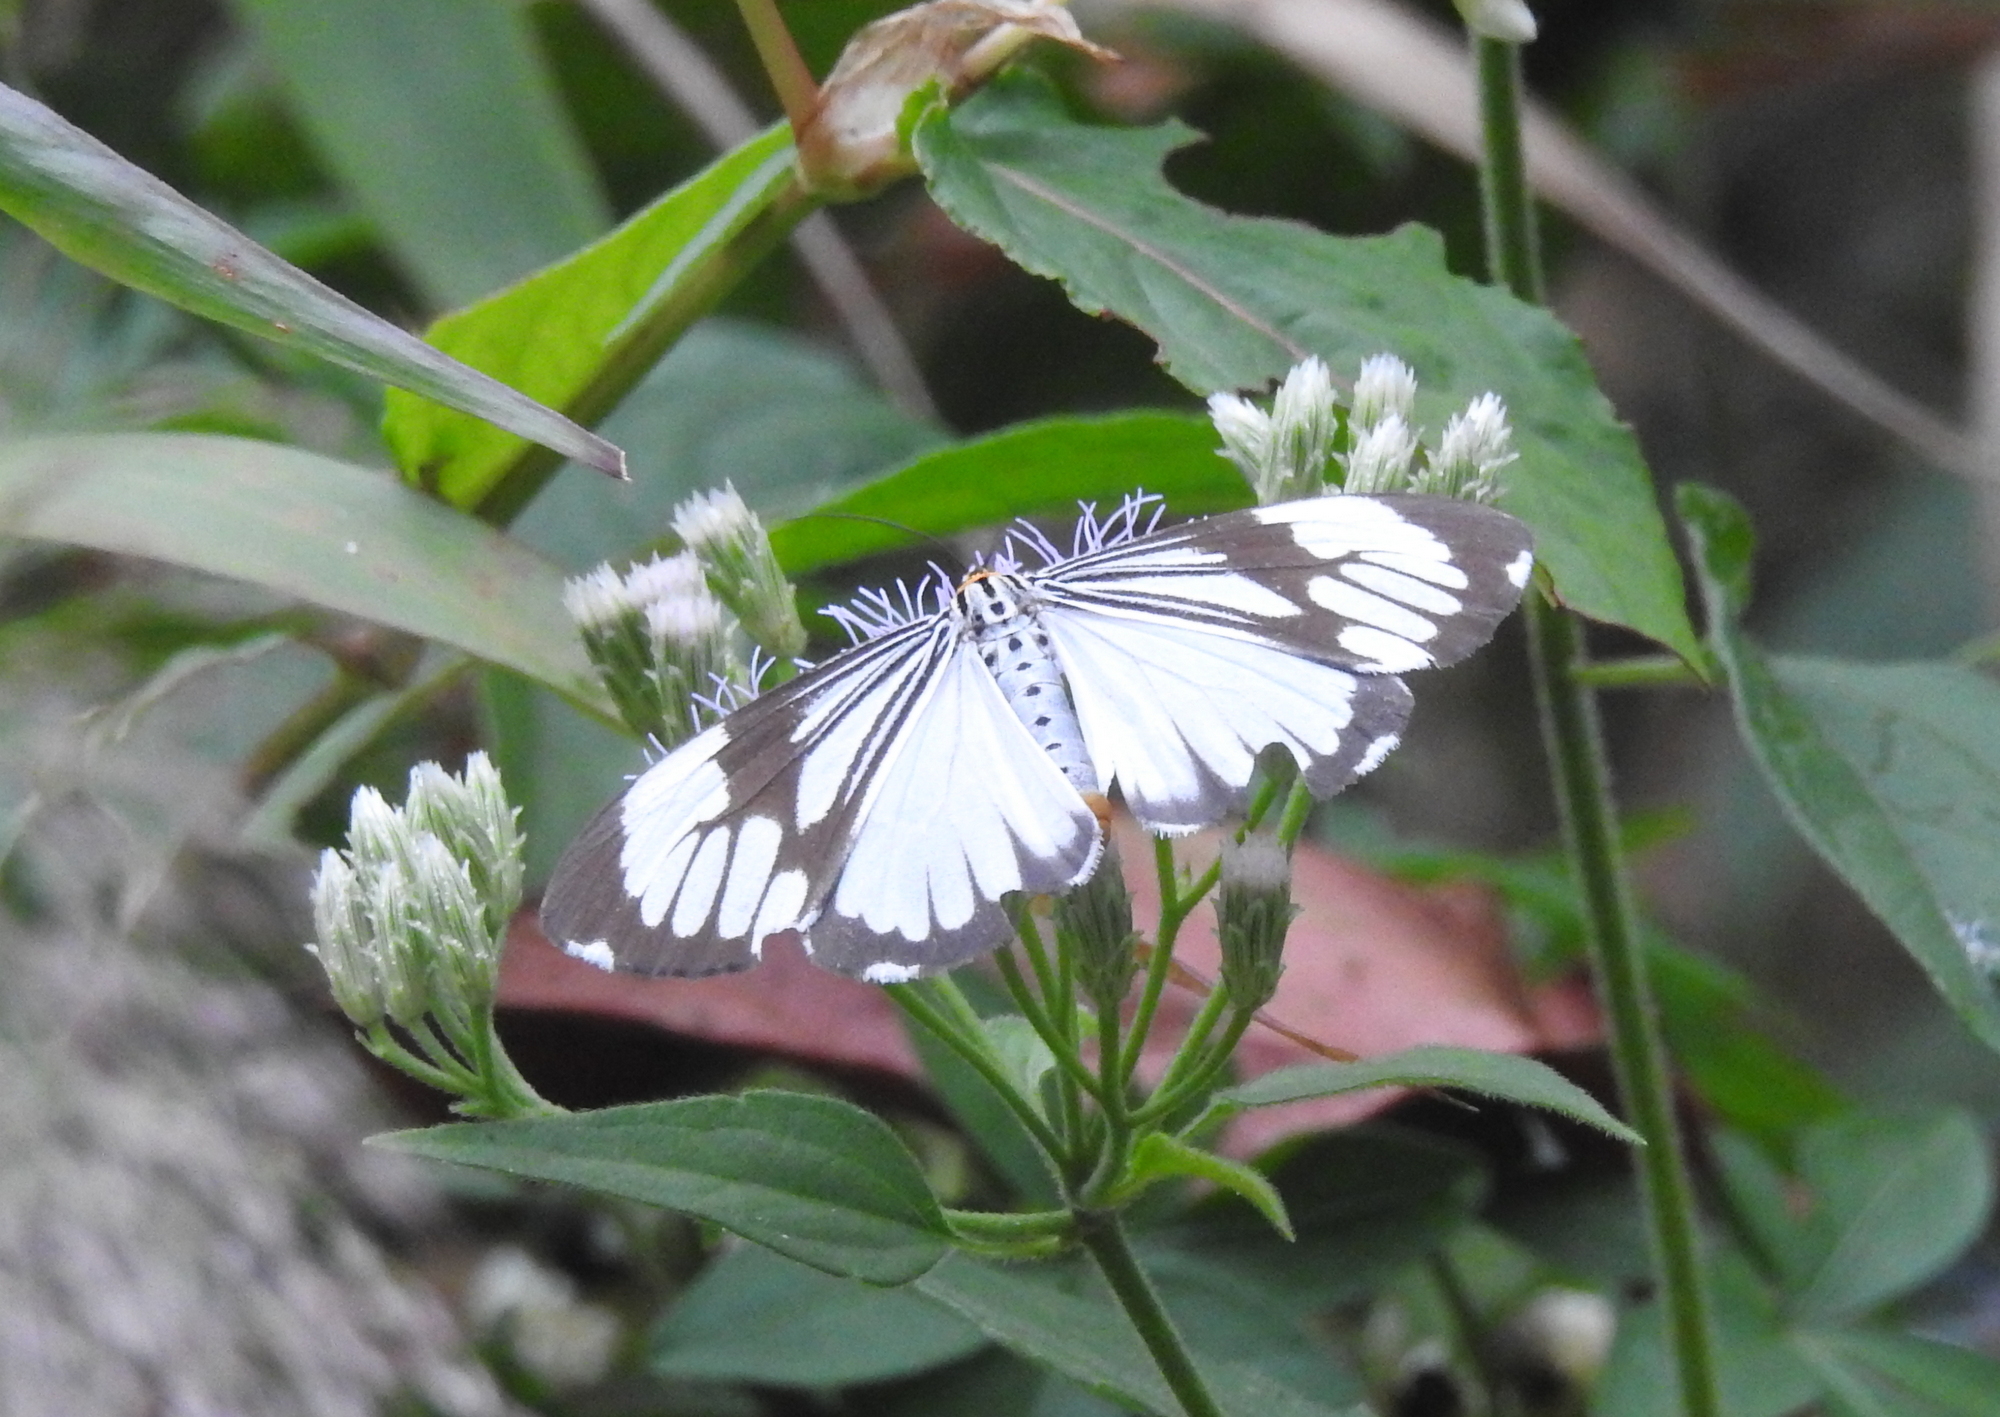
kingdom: Animalia
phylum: Arthropoda
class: Insecta
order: Lepidoptera
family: Erebidae
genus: Nyctemera
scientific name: Nyctemera coleta
